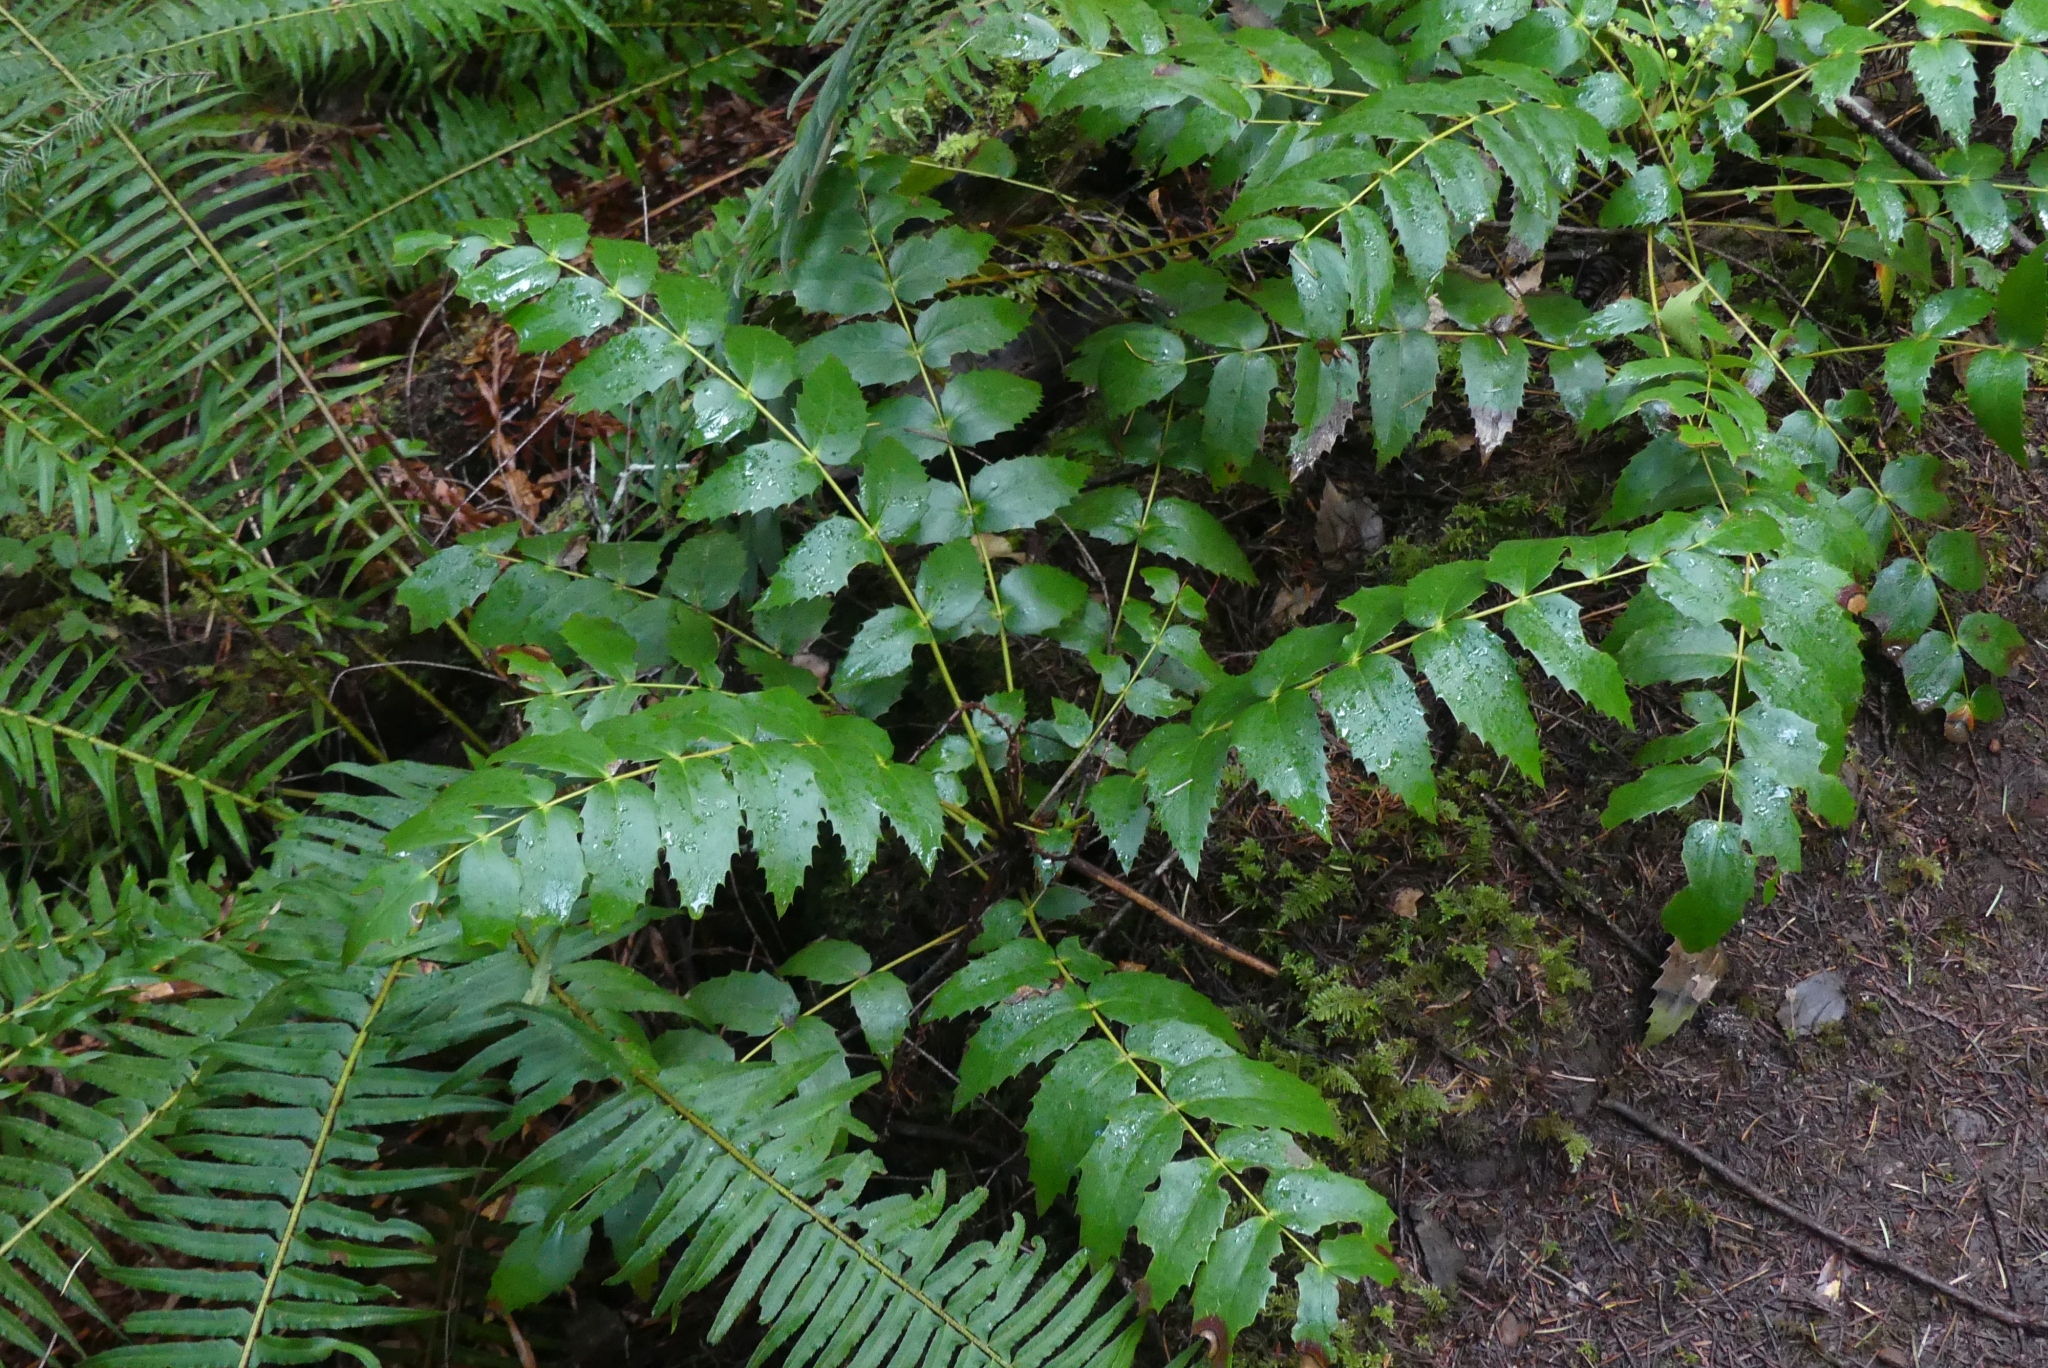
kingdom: Plantae
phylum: Tracheophyta
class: Magnoliopsida
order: Ranunculales
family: Berberidaceae
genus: Mahonia
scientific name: Mahonia nervosa
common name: Cascade oregon-grape
